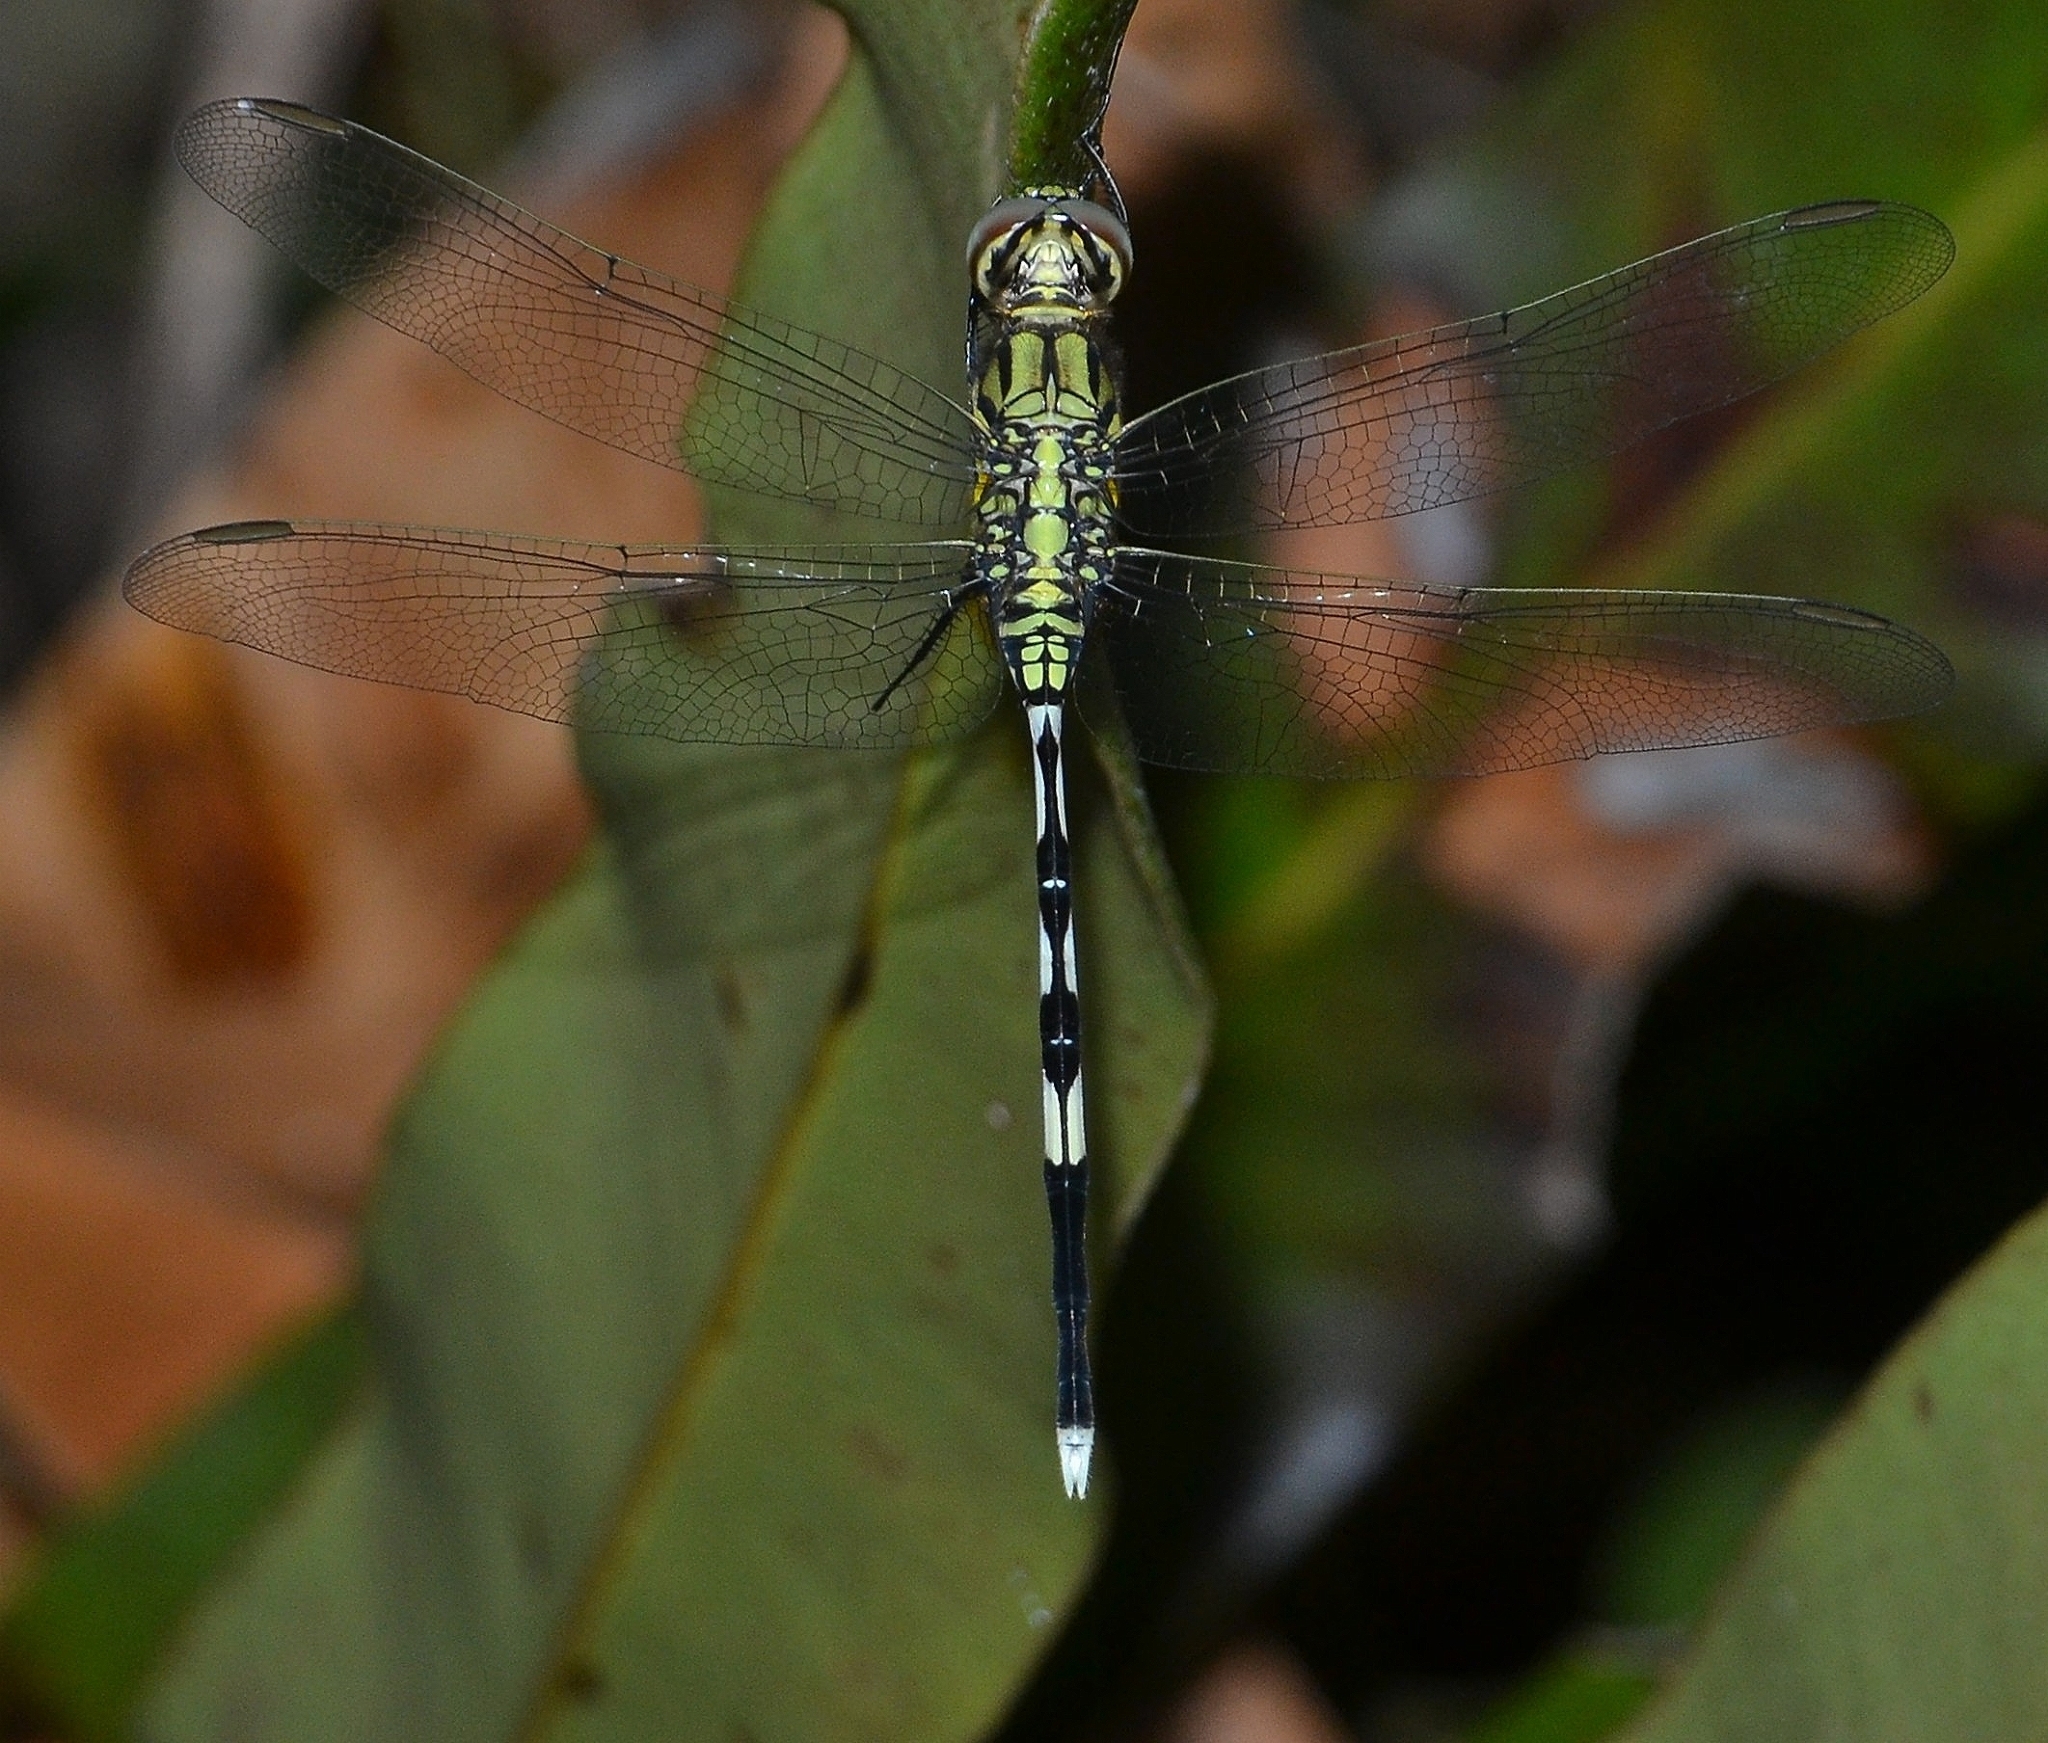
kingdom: Animalia
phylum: Arthropoda
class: Insecta
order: Odonata
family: Libellulidae
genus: Orthetrum
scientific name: Orthetrum sabina
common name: Slender skimmer
